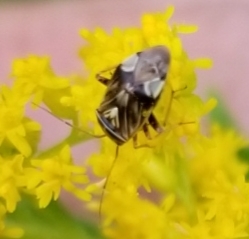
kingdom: Animalia
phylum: Arthropoda
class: Insecta
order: Hemiptera
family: Miridae
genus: Lygus
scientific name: Lygus lineolaris
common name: North american tarnished plant bug
